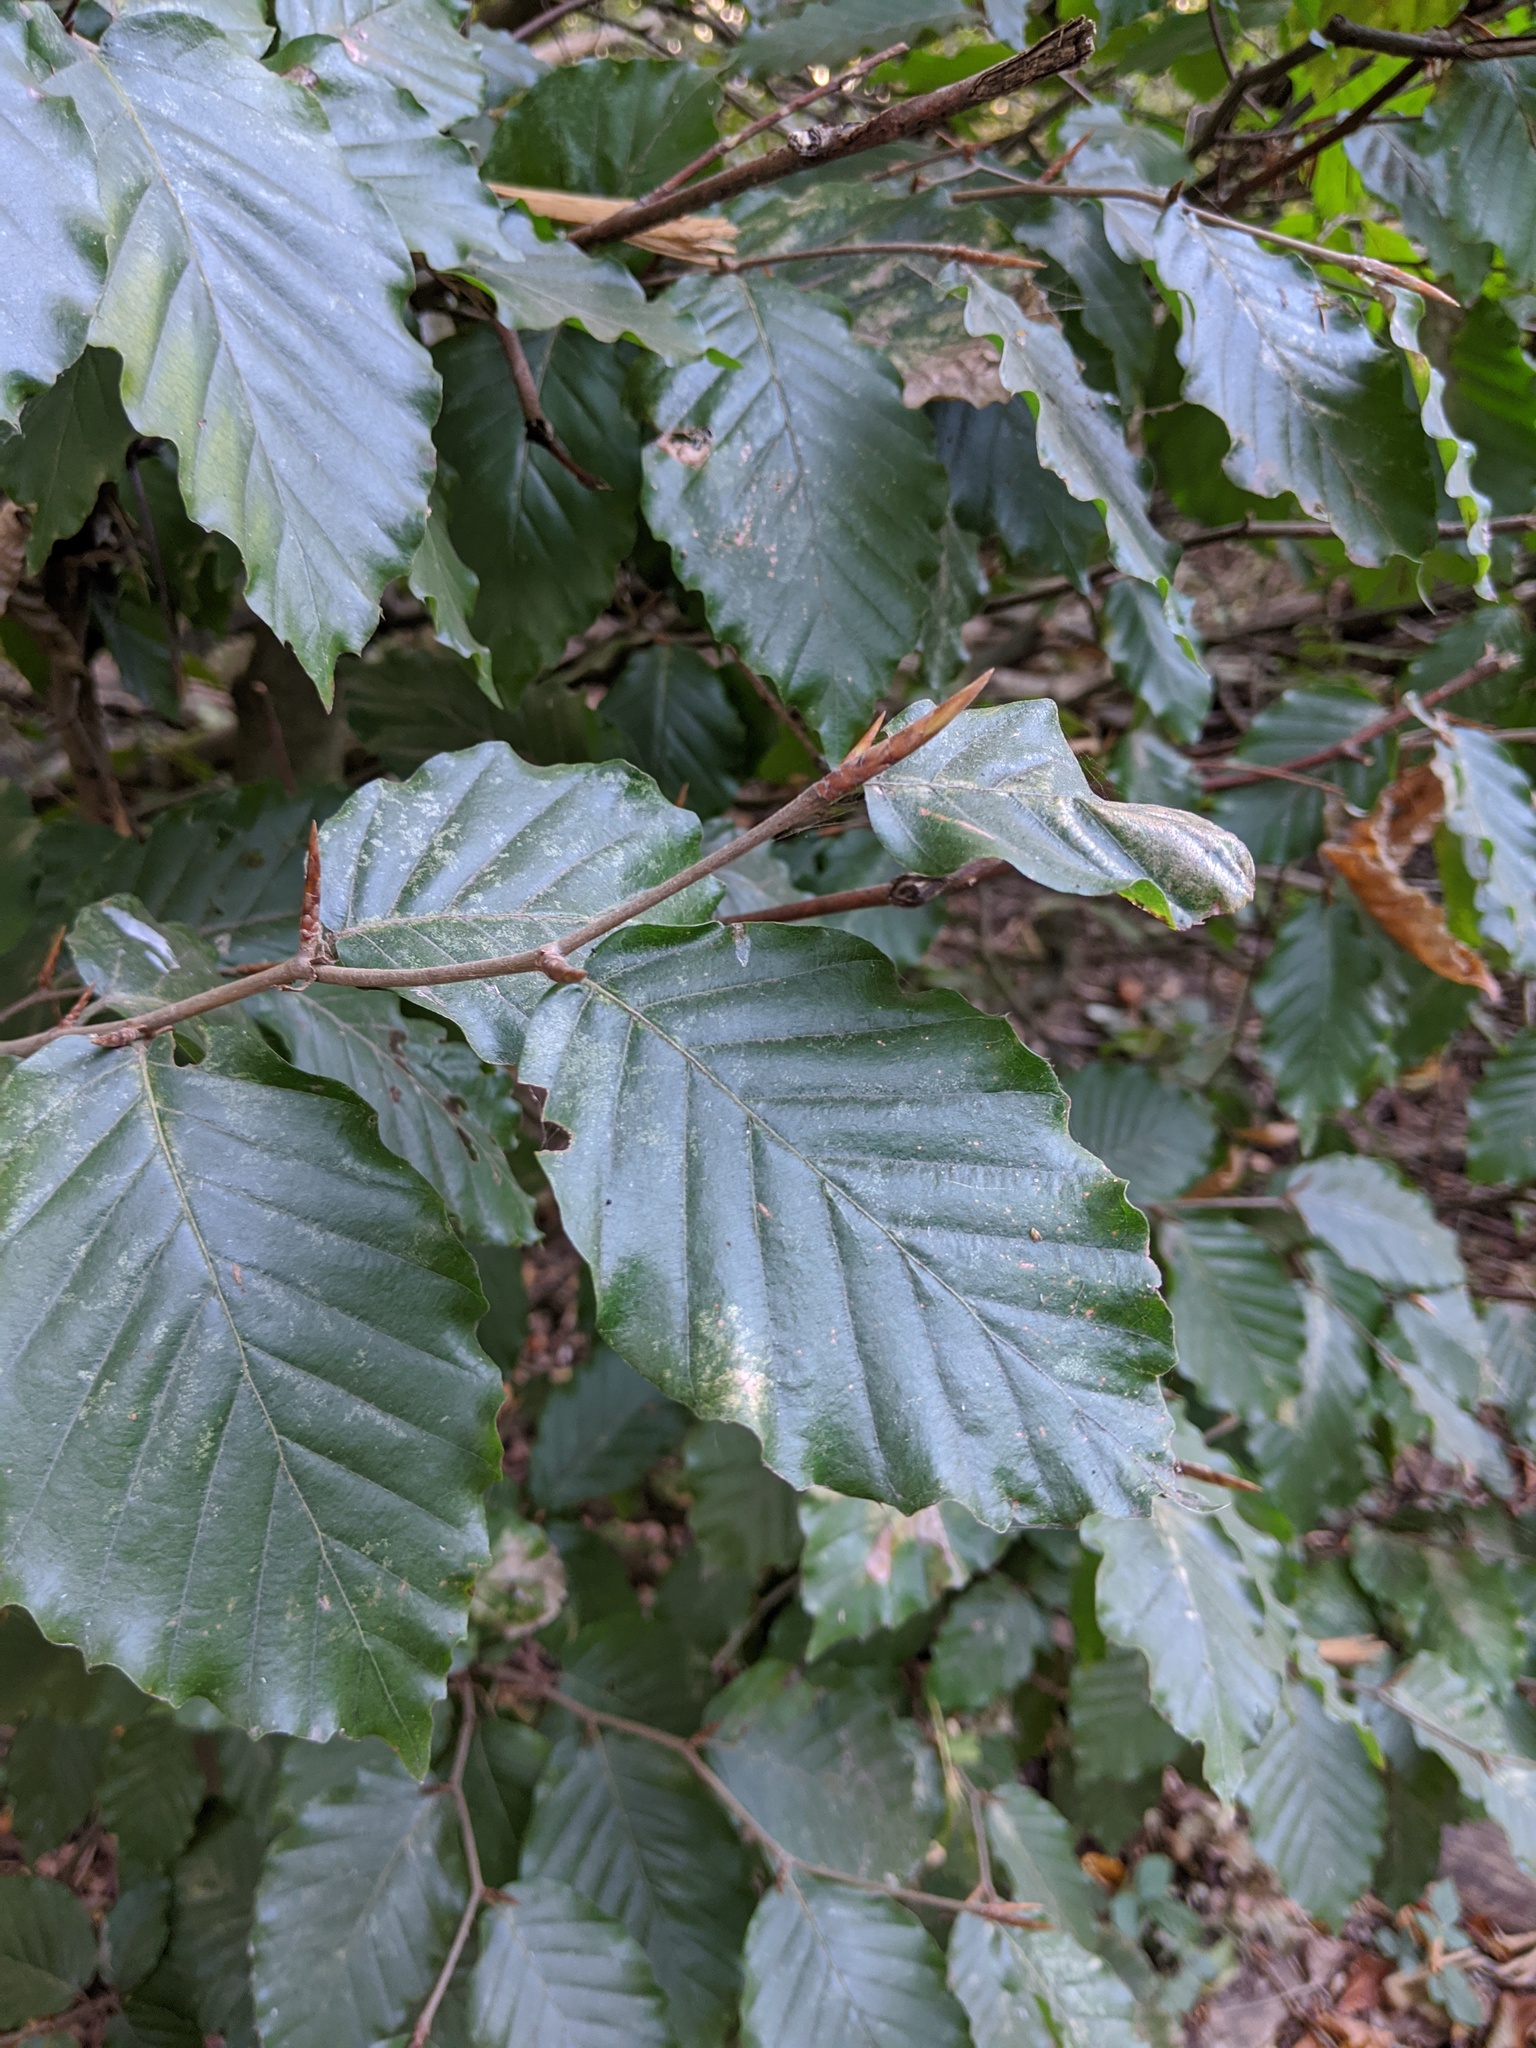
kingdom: Plantae
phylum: Tracheophyta
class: Magnoliopsida
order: Fagales
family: Fagaceae
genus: Fagus
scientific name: Fagus sylvatica
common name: Beech
